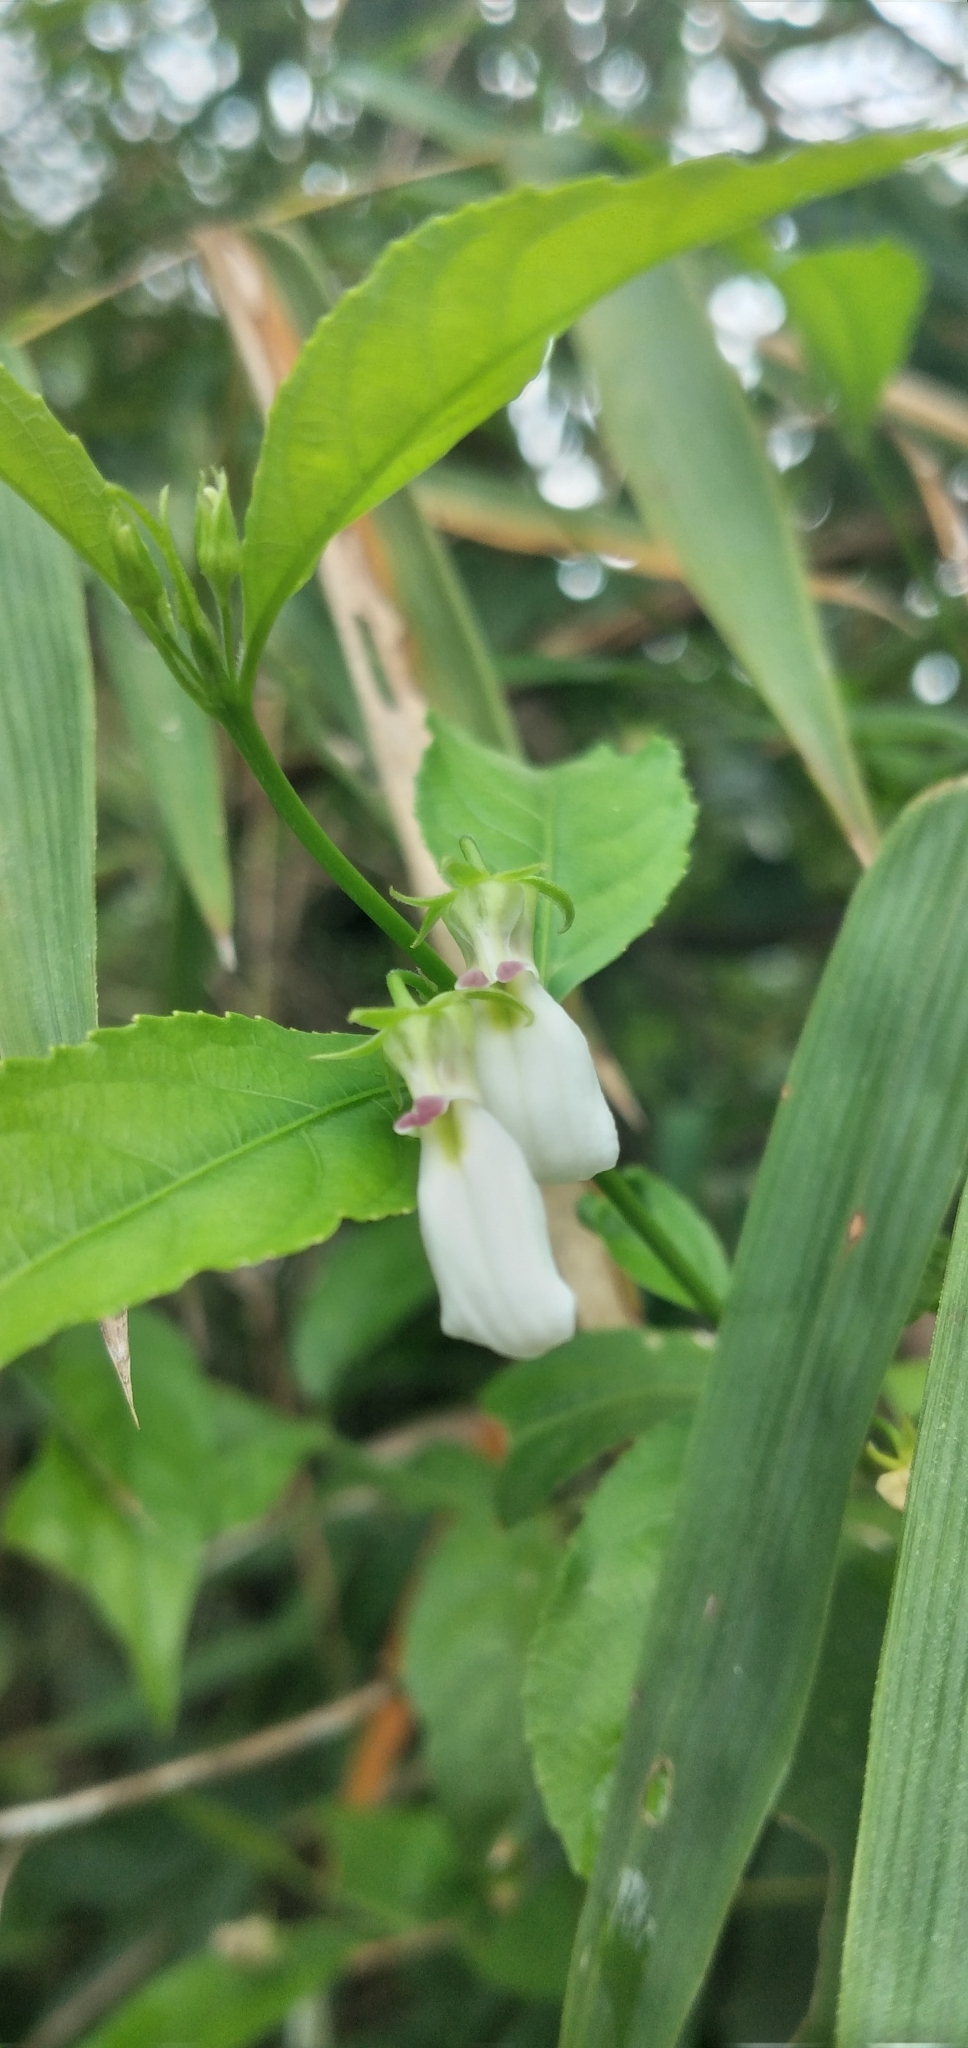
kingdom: Plantae
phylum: Tracheophyta
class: Magnoliopsida
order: Malpighiales
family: Violaceae
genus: Pombalia
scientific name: Pombalia bigibbosa
